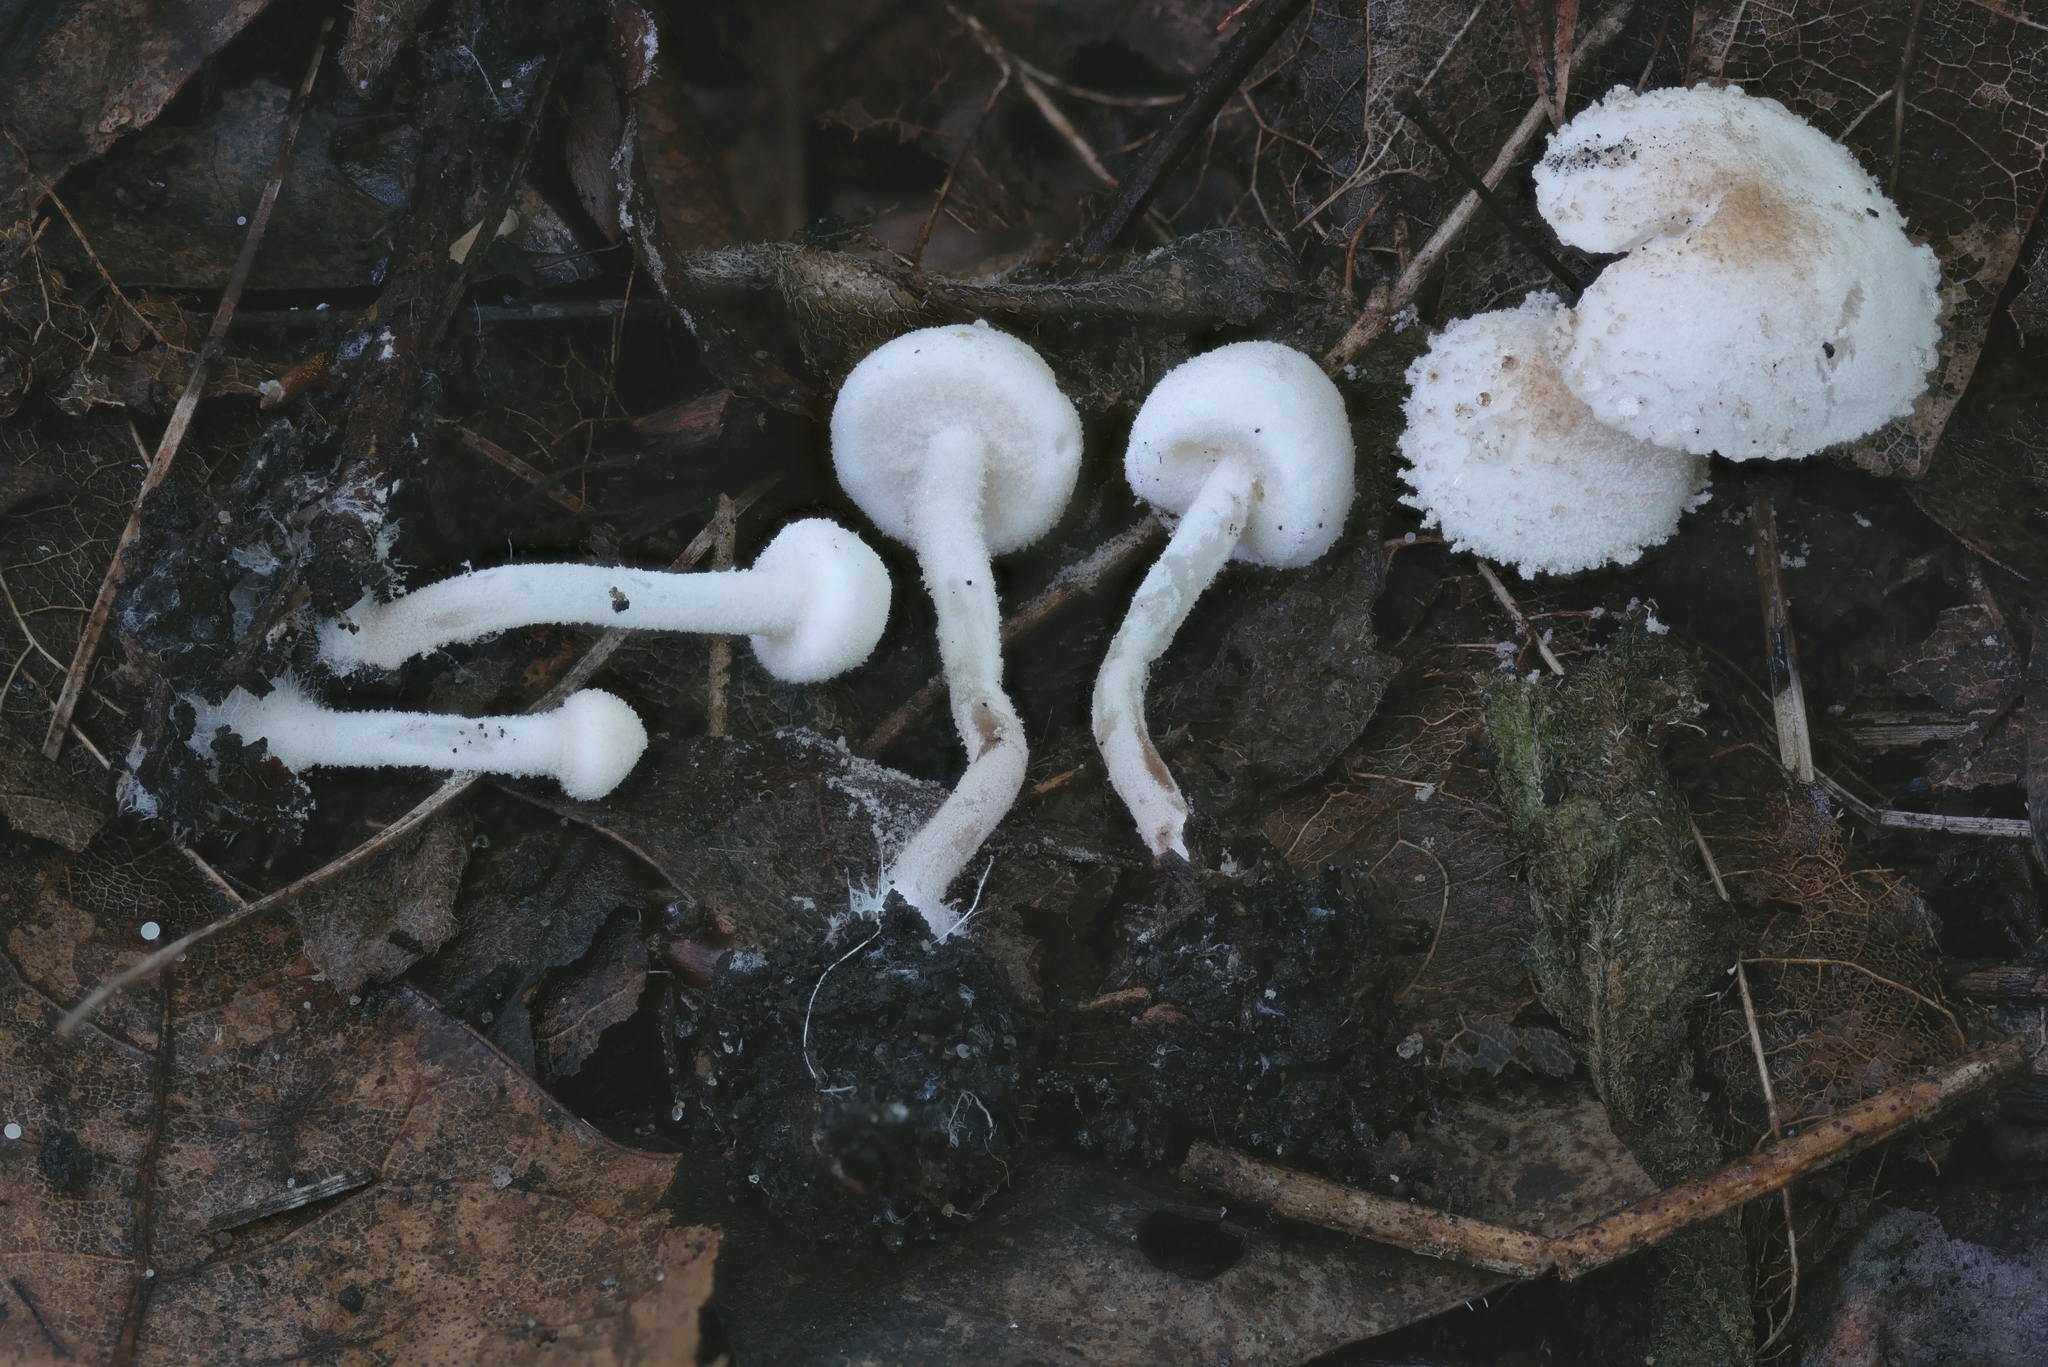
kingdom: Fungi
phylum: Basidiomycota
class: Agaricomycetes
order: Agaricales
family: Agaricaceae
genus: Cystolepiota
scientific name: Cystolepiota seminuda
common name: Bearded dapperling
